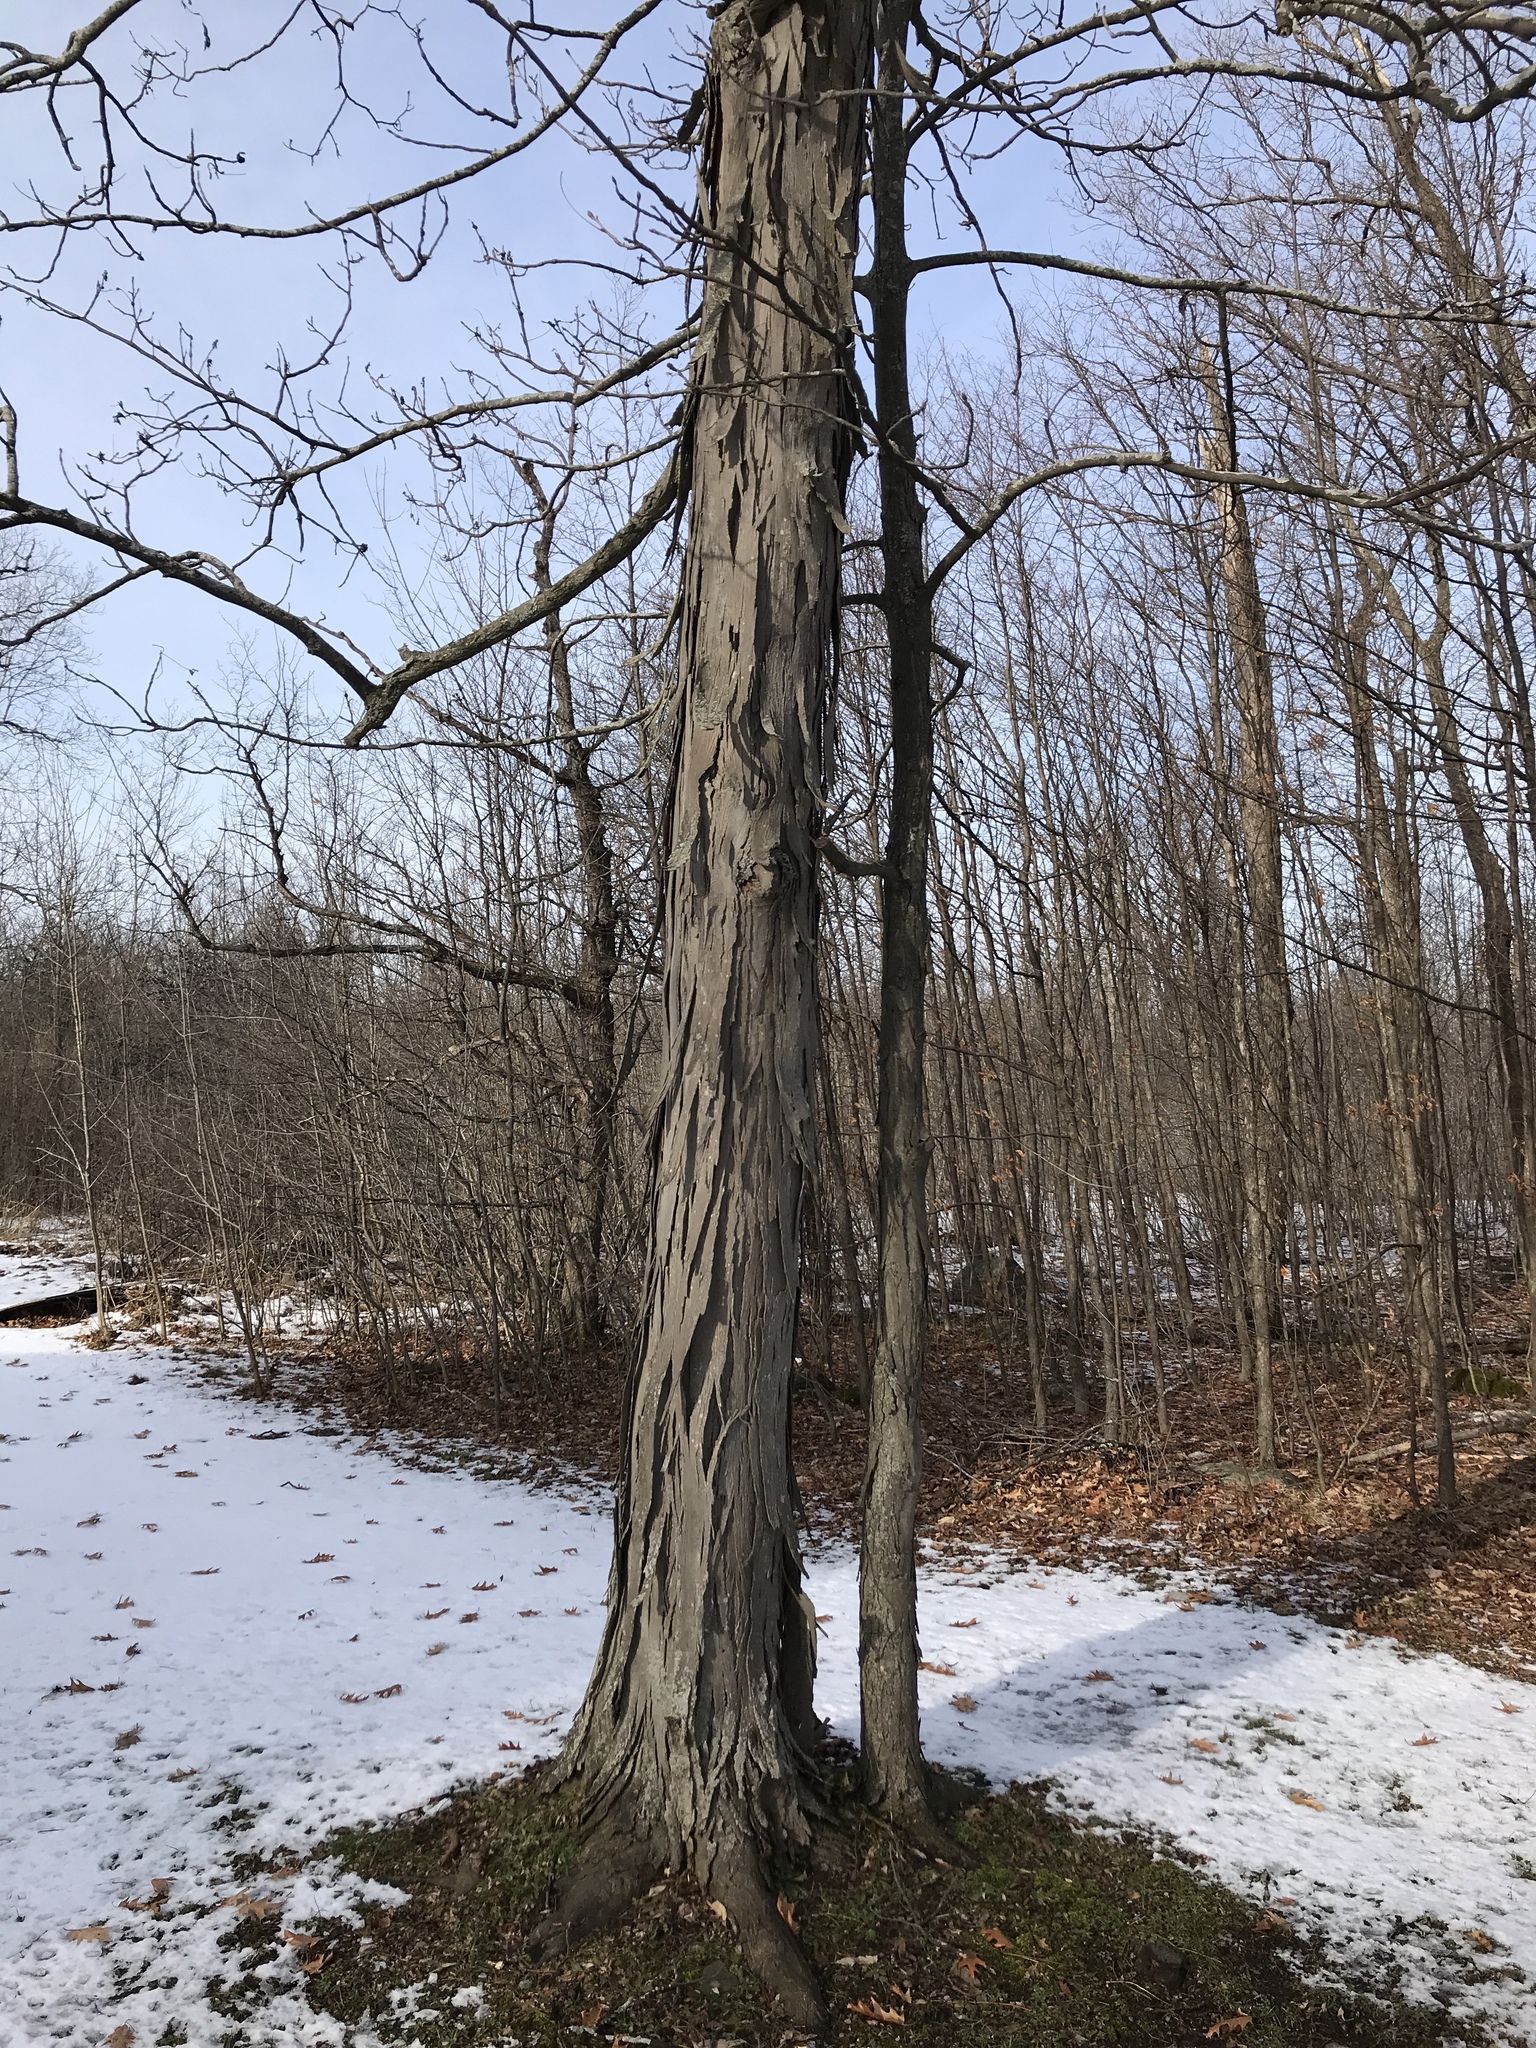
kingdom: Plantae
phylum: Tracheophyta
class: Magnoliopsida
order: Fagales
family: Juglandaceae
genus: Carya
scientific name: Carya ovata
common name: Shagbark hickory
